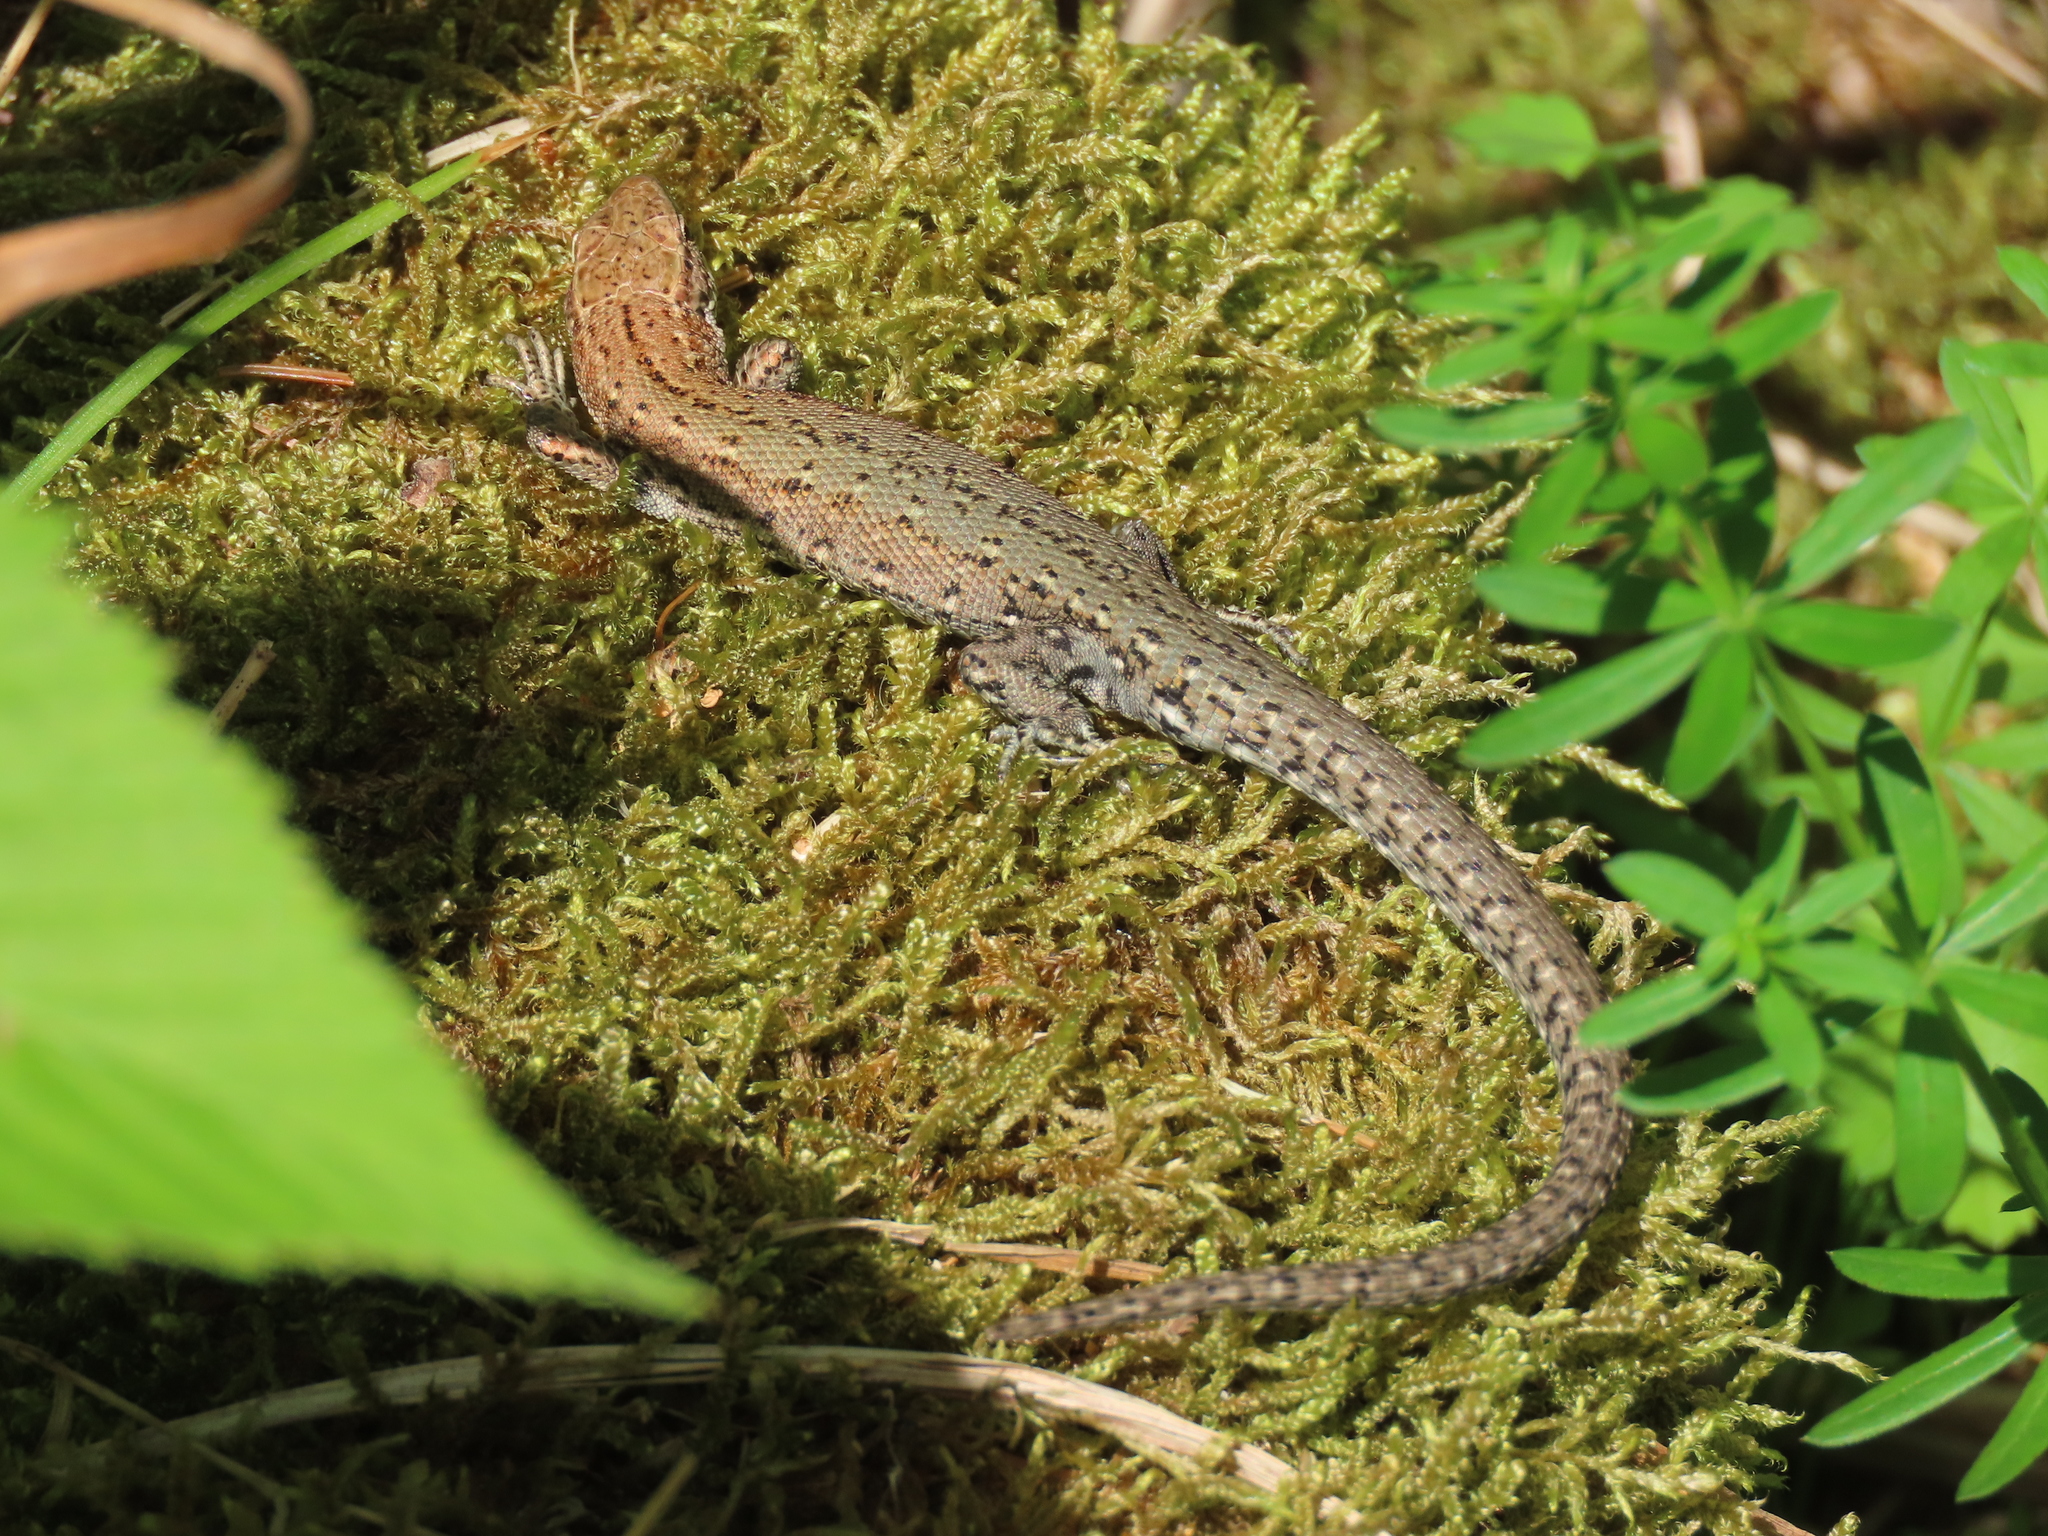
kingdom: Animalia
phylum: Chordata
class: Squamata
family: Lacertidae
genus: Zootoca
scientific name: Zootoca
